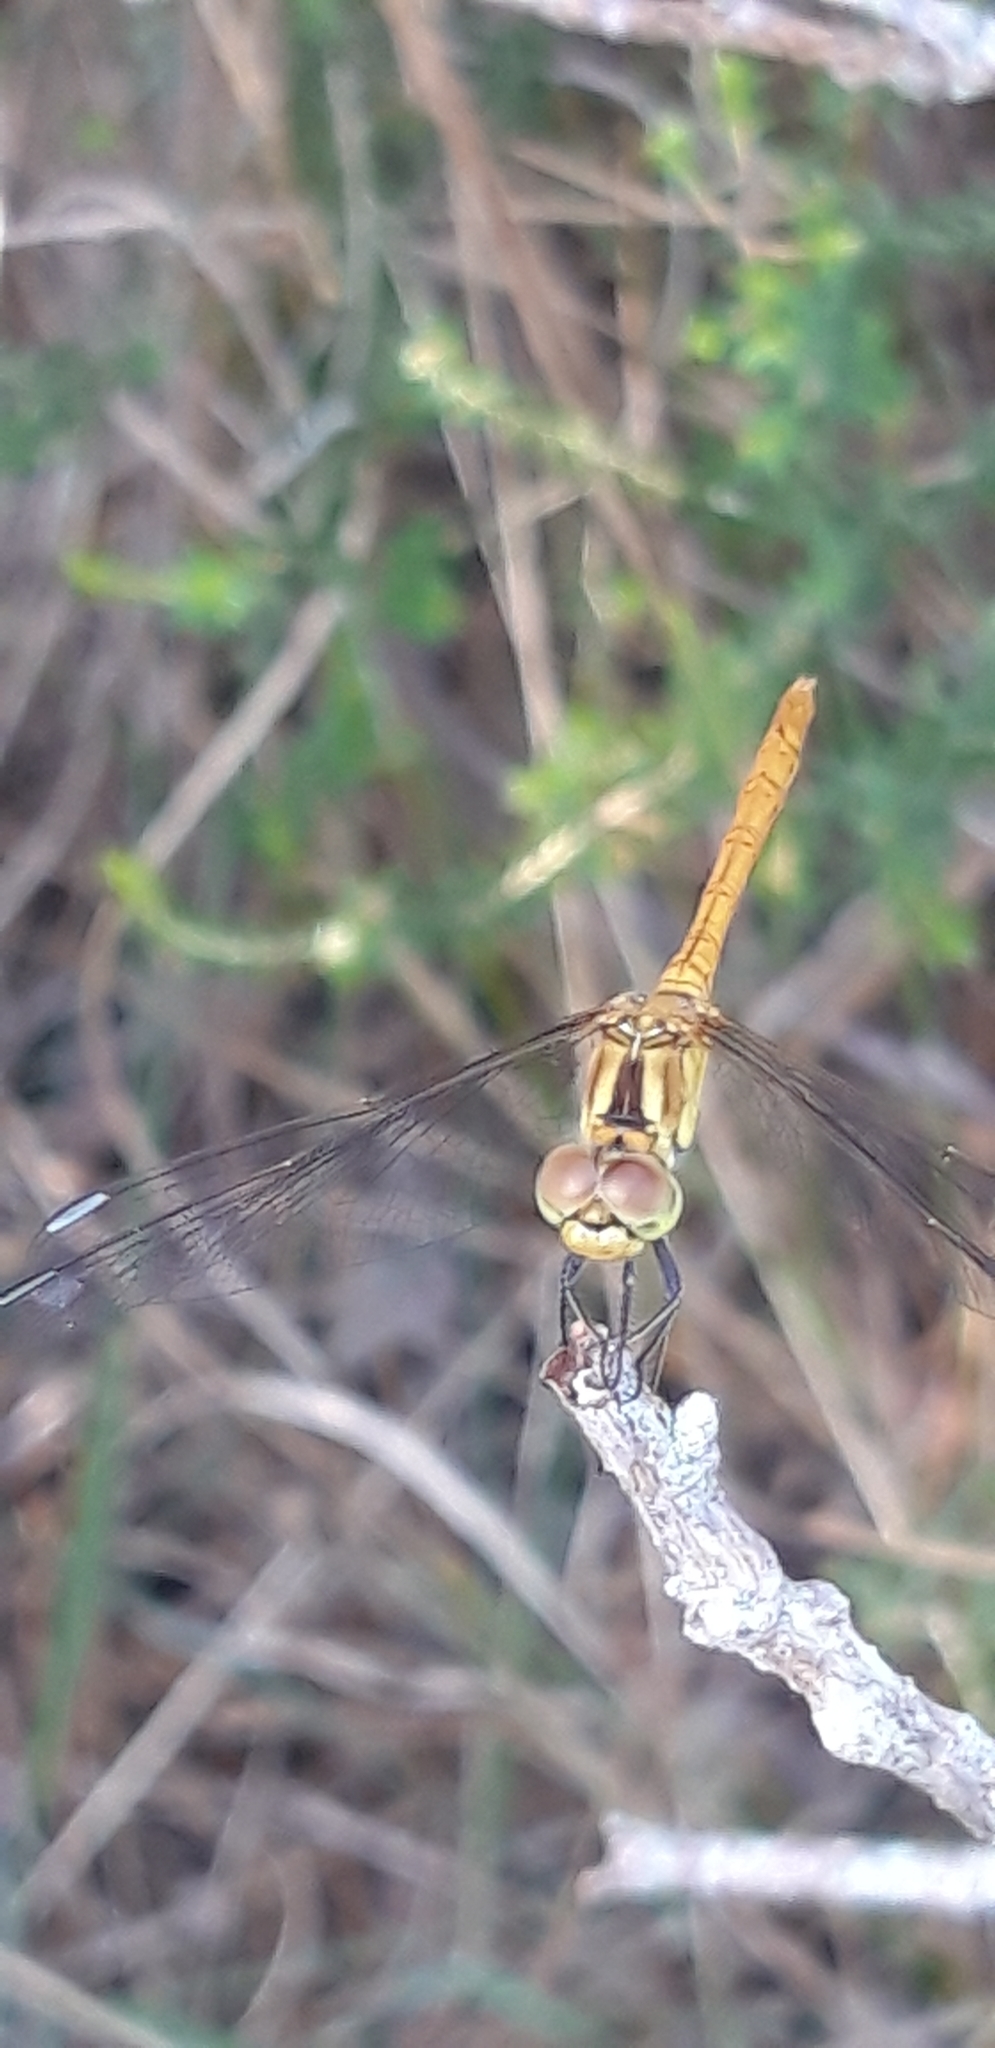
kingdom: Animalia
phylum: Arthropoda
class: Insecta
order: Odonata
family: Libellulidae
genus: Sympetrum
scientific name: Sympetrum meridionale
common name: Southern darter
